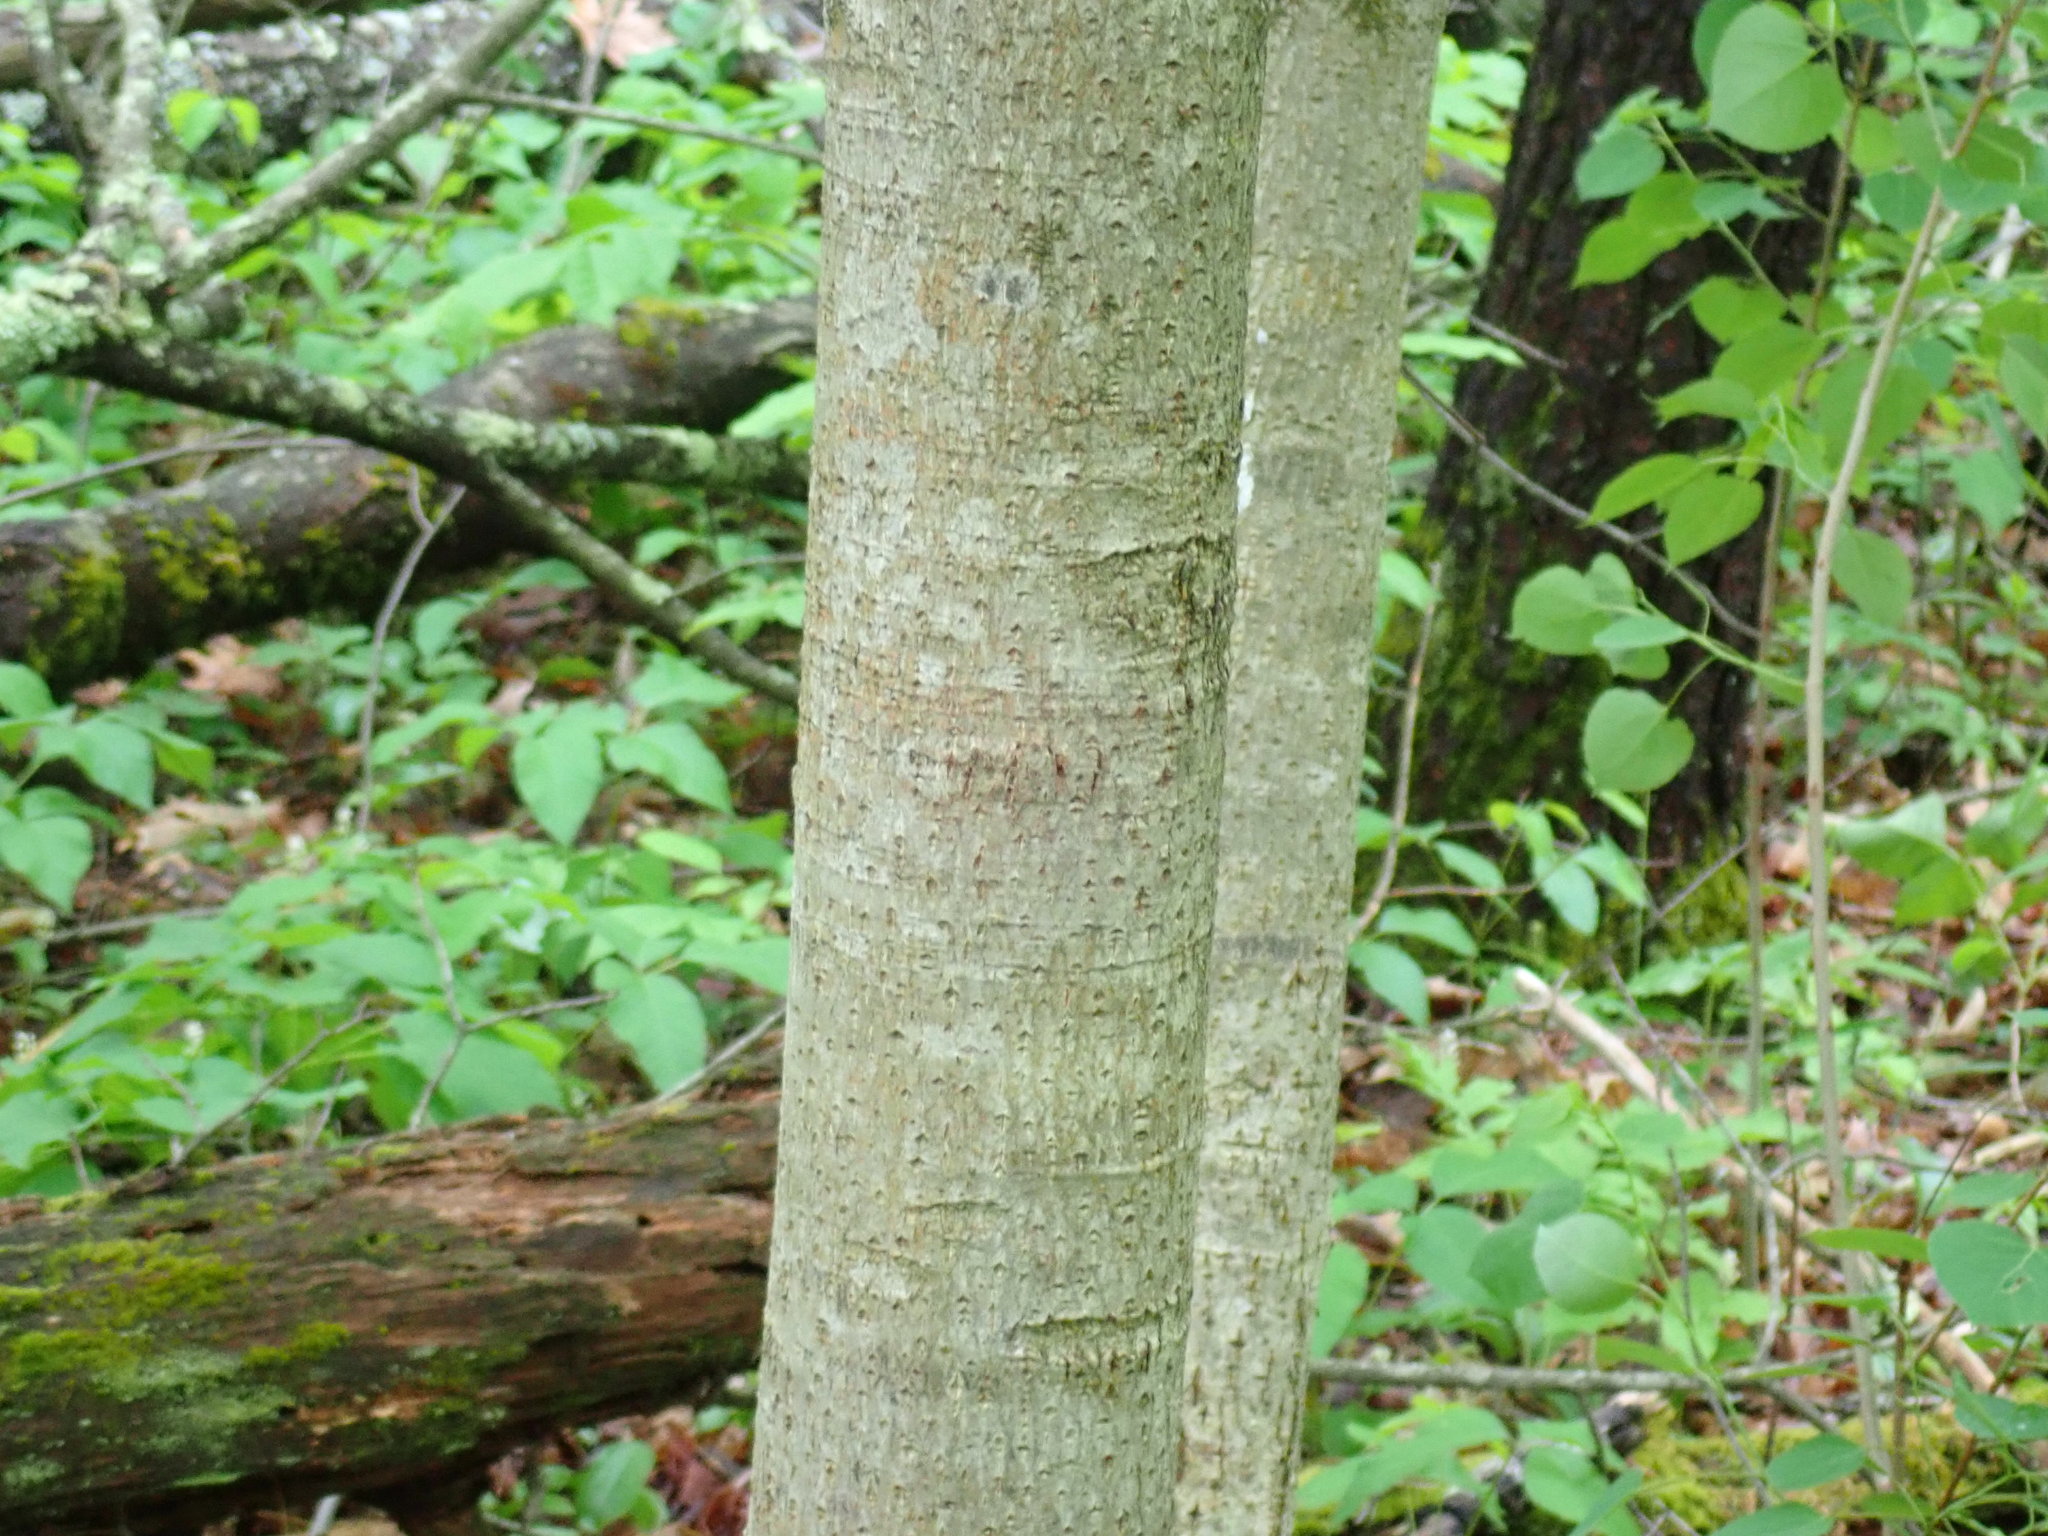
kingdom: Plantae
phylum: Tracheophyta
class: Magnoliopsida
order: Malvales
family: Malvaceae
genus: Tilia
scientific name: Tilia americana
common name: Basswood
